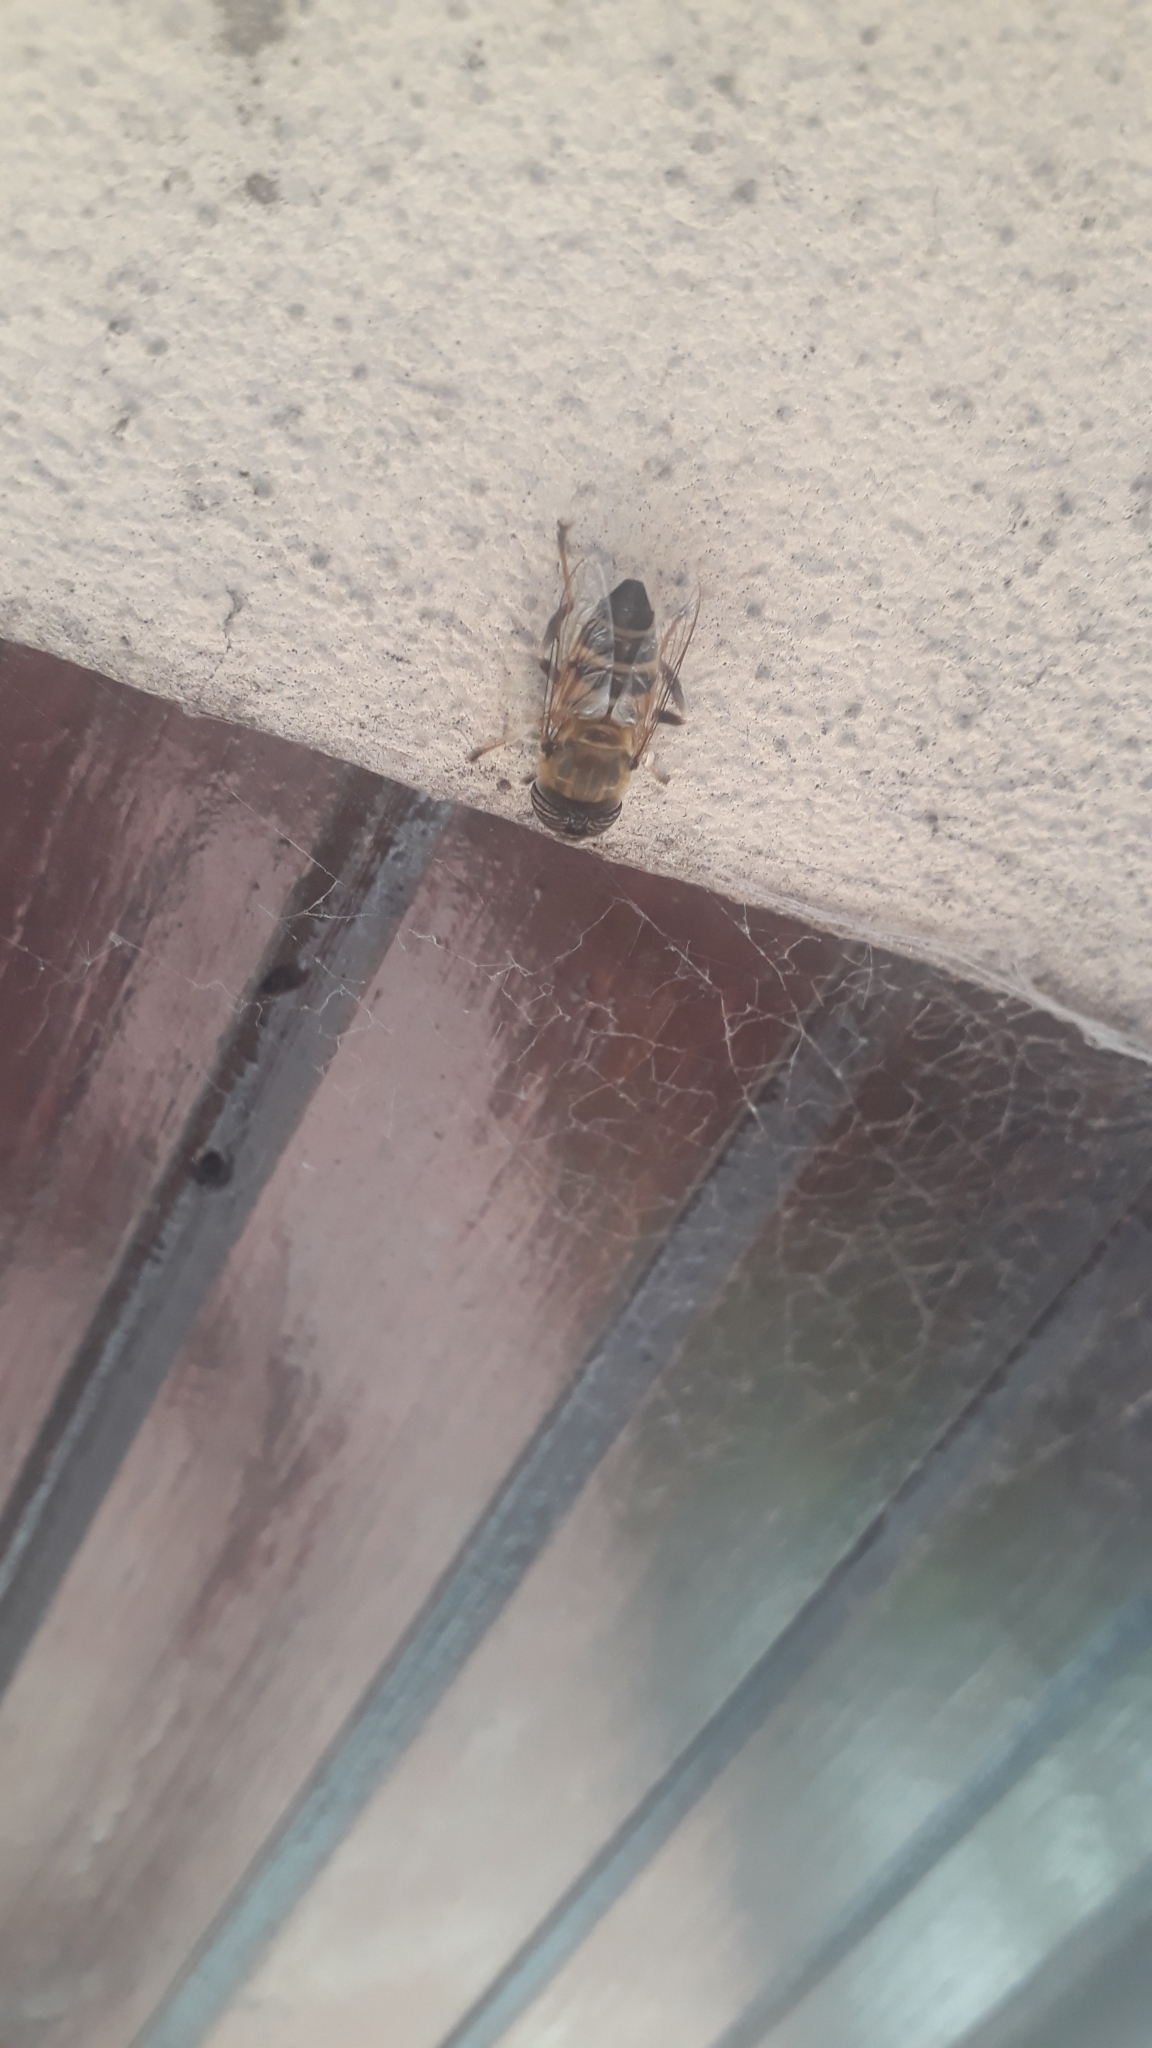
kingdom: Animalia
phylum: Arthropoda
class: Insecta
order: Diptera
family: Syrphidae
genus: Eristalinus
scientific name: Eristalinus taeniops
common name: Syrphid fly
